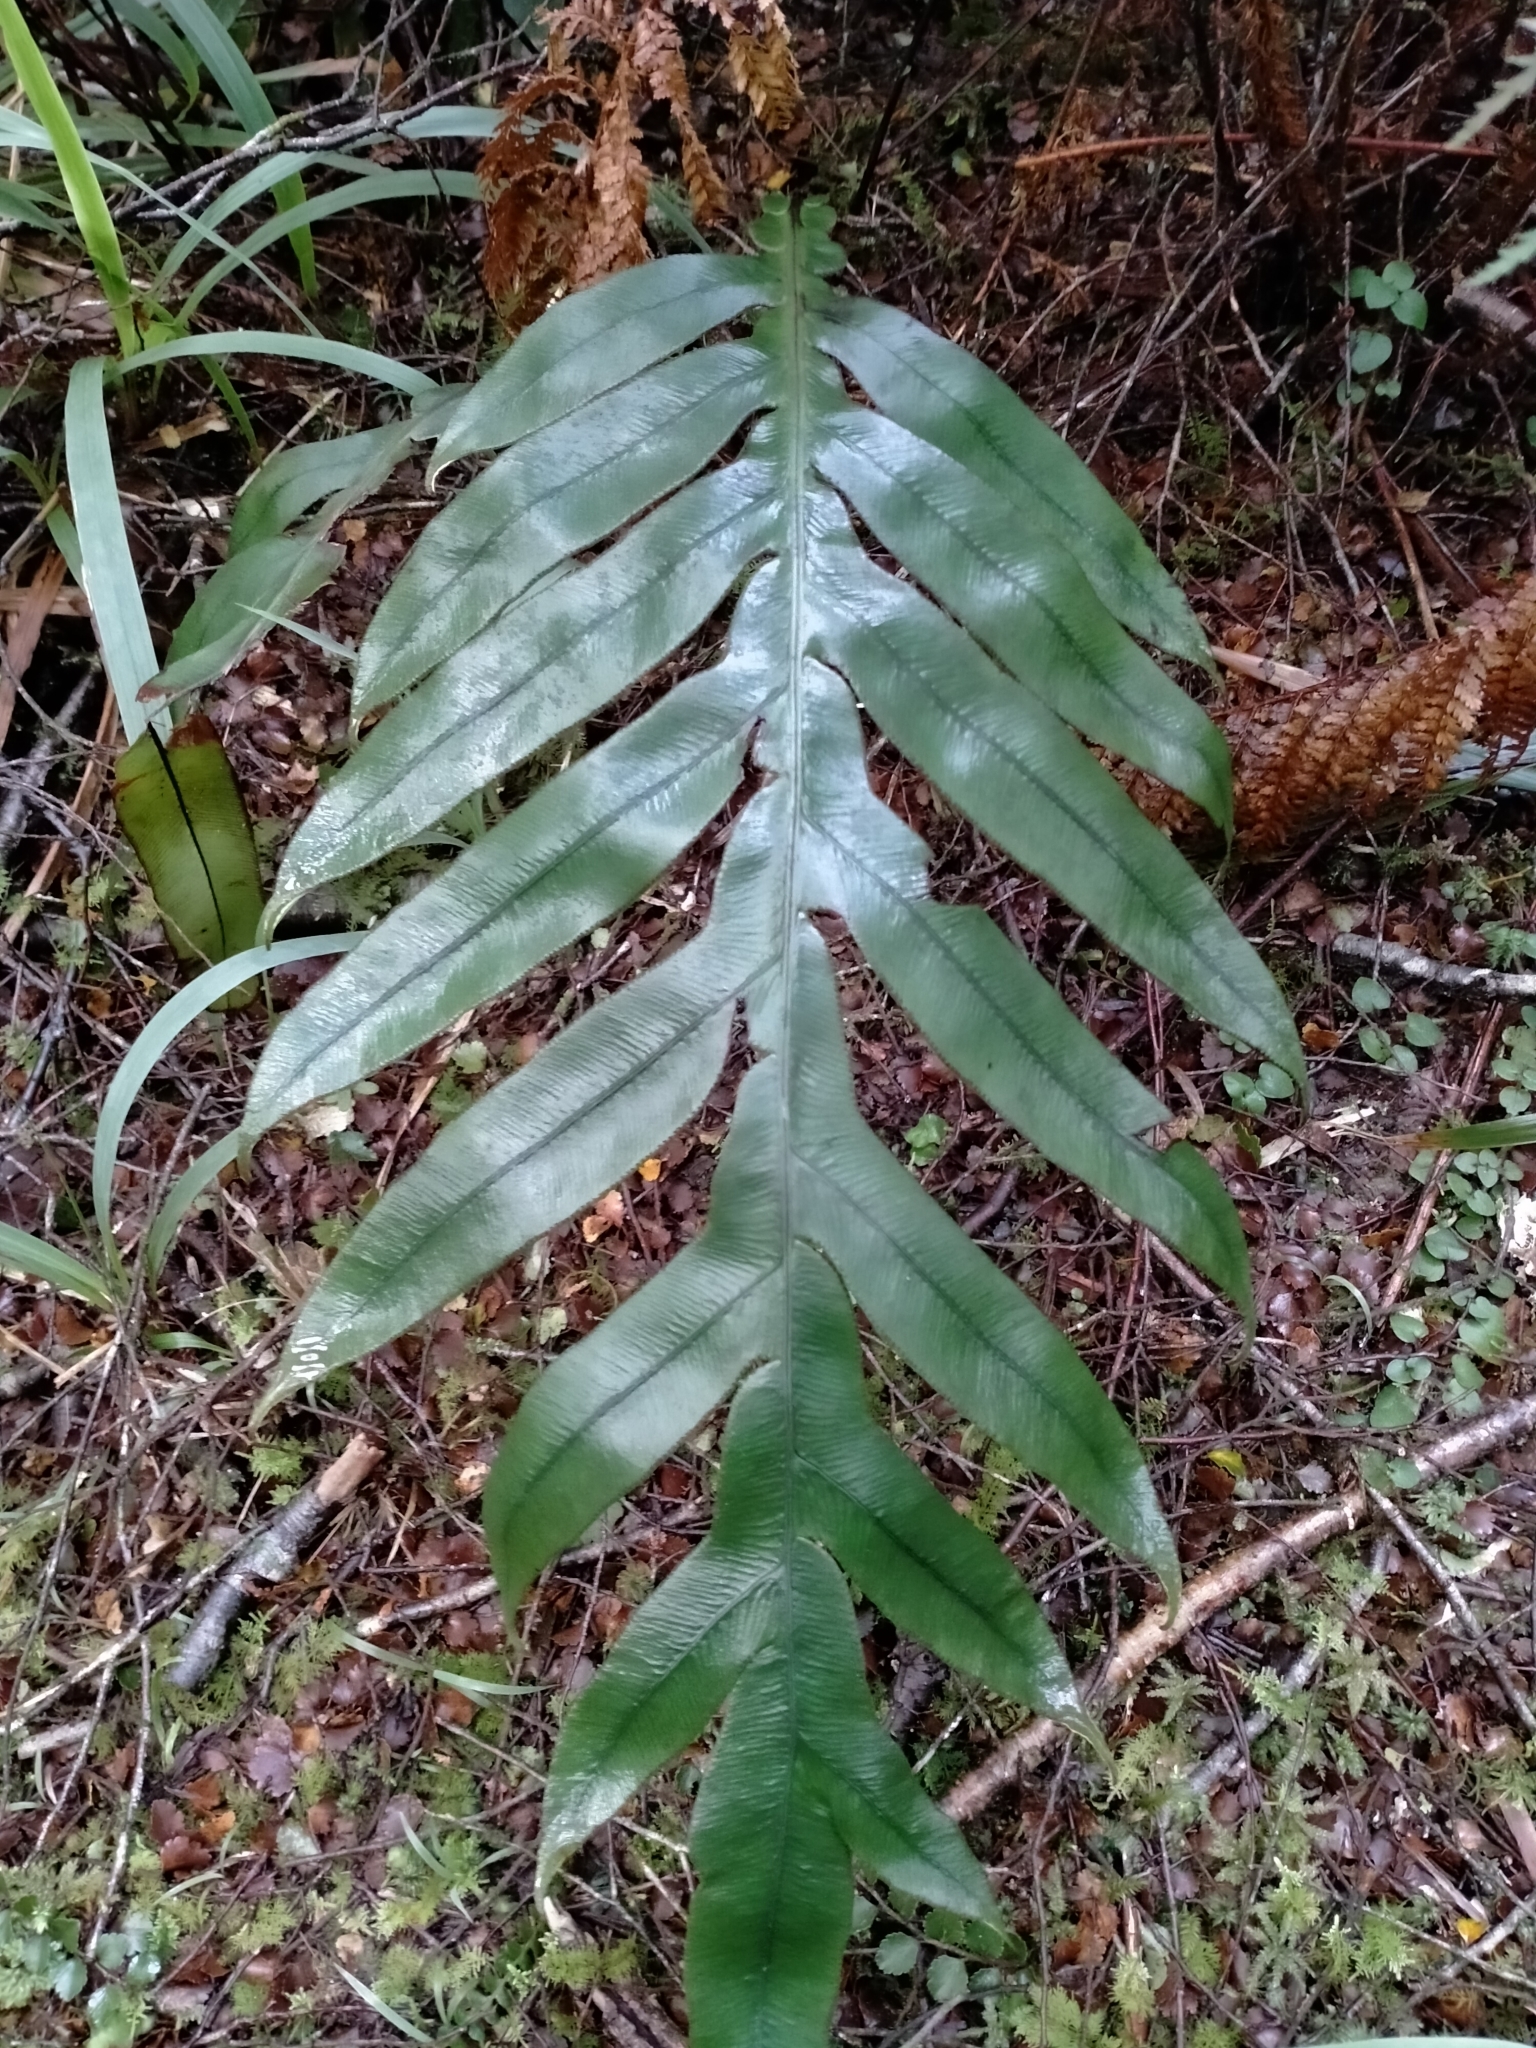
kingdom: Plantae
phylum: Tracheophyta
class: Polypodiopsida
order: Polypodiales
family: Blechnaceae
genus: Austroblechnum
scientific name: Austroblechnum colensoi
